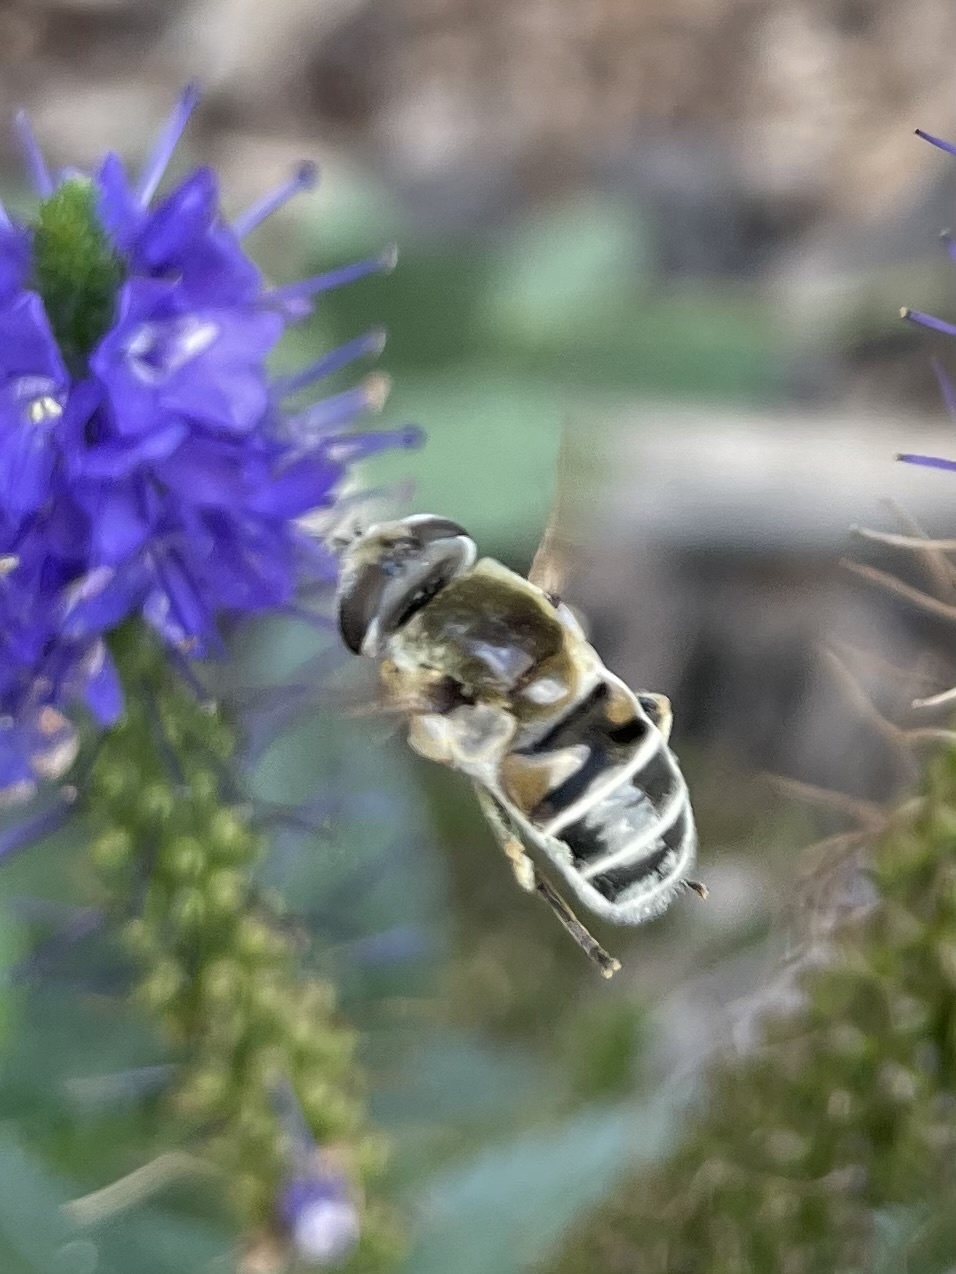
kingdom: Animalia
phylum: Arthropoda
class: Insecta
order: Diptera
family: Syrphidae
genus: Eristalis
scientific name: Eristalis stipator
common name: Yellow-shouldered drone fly
